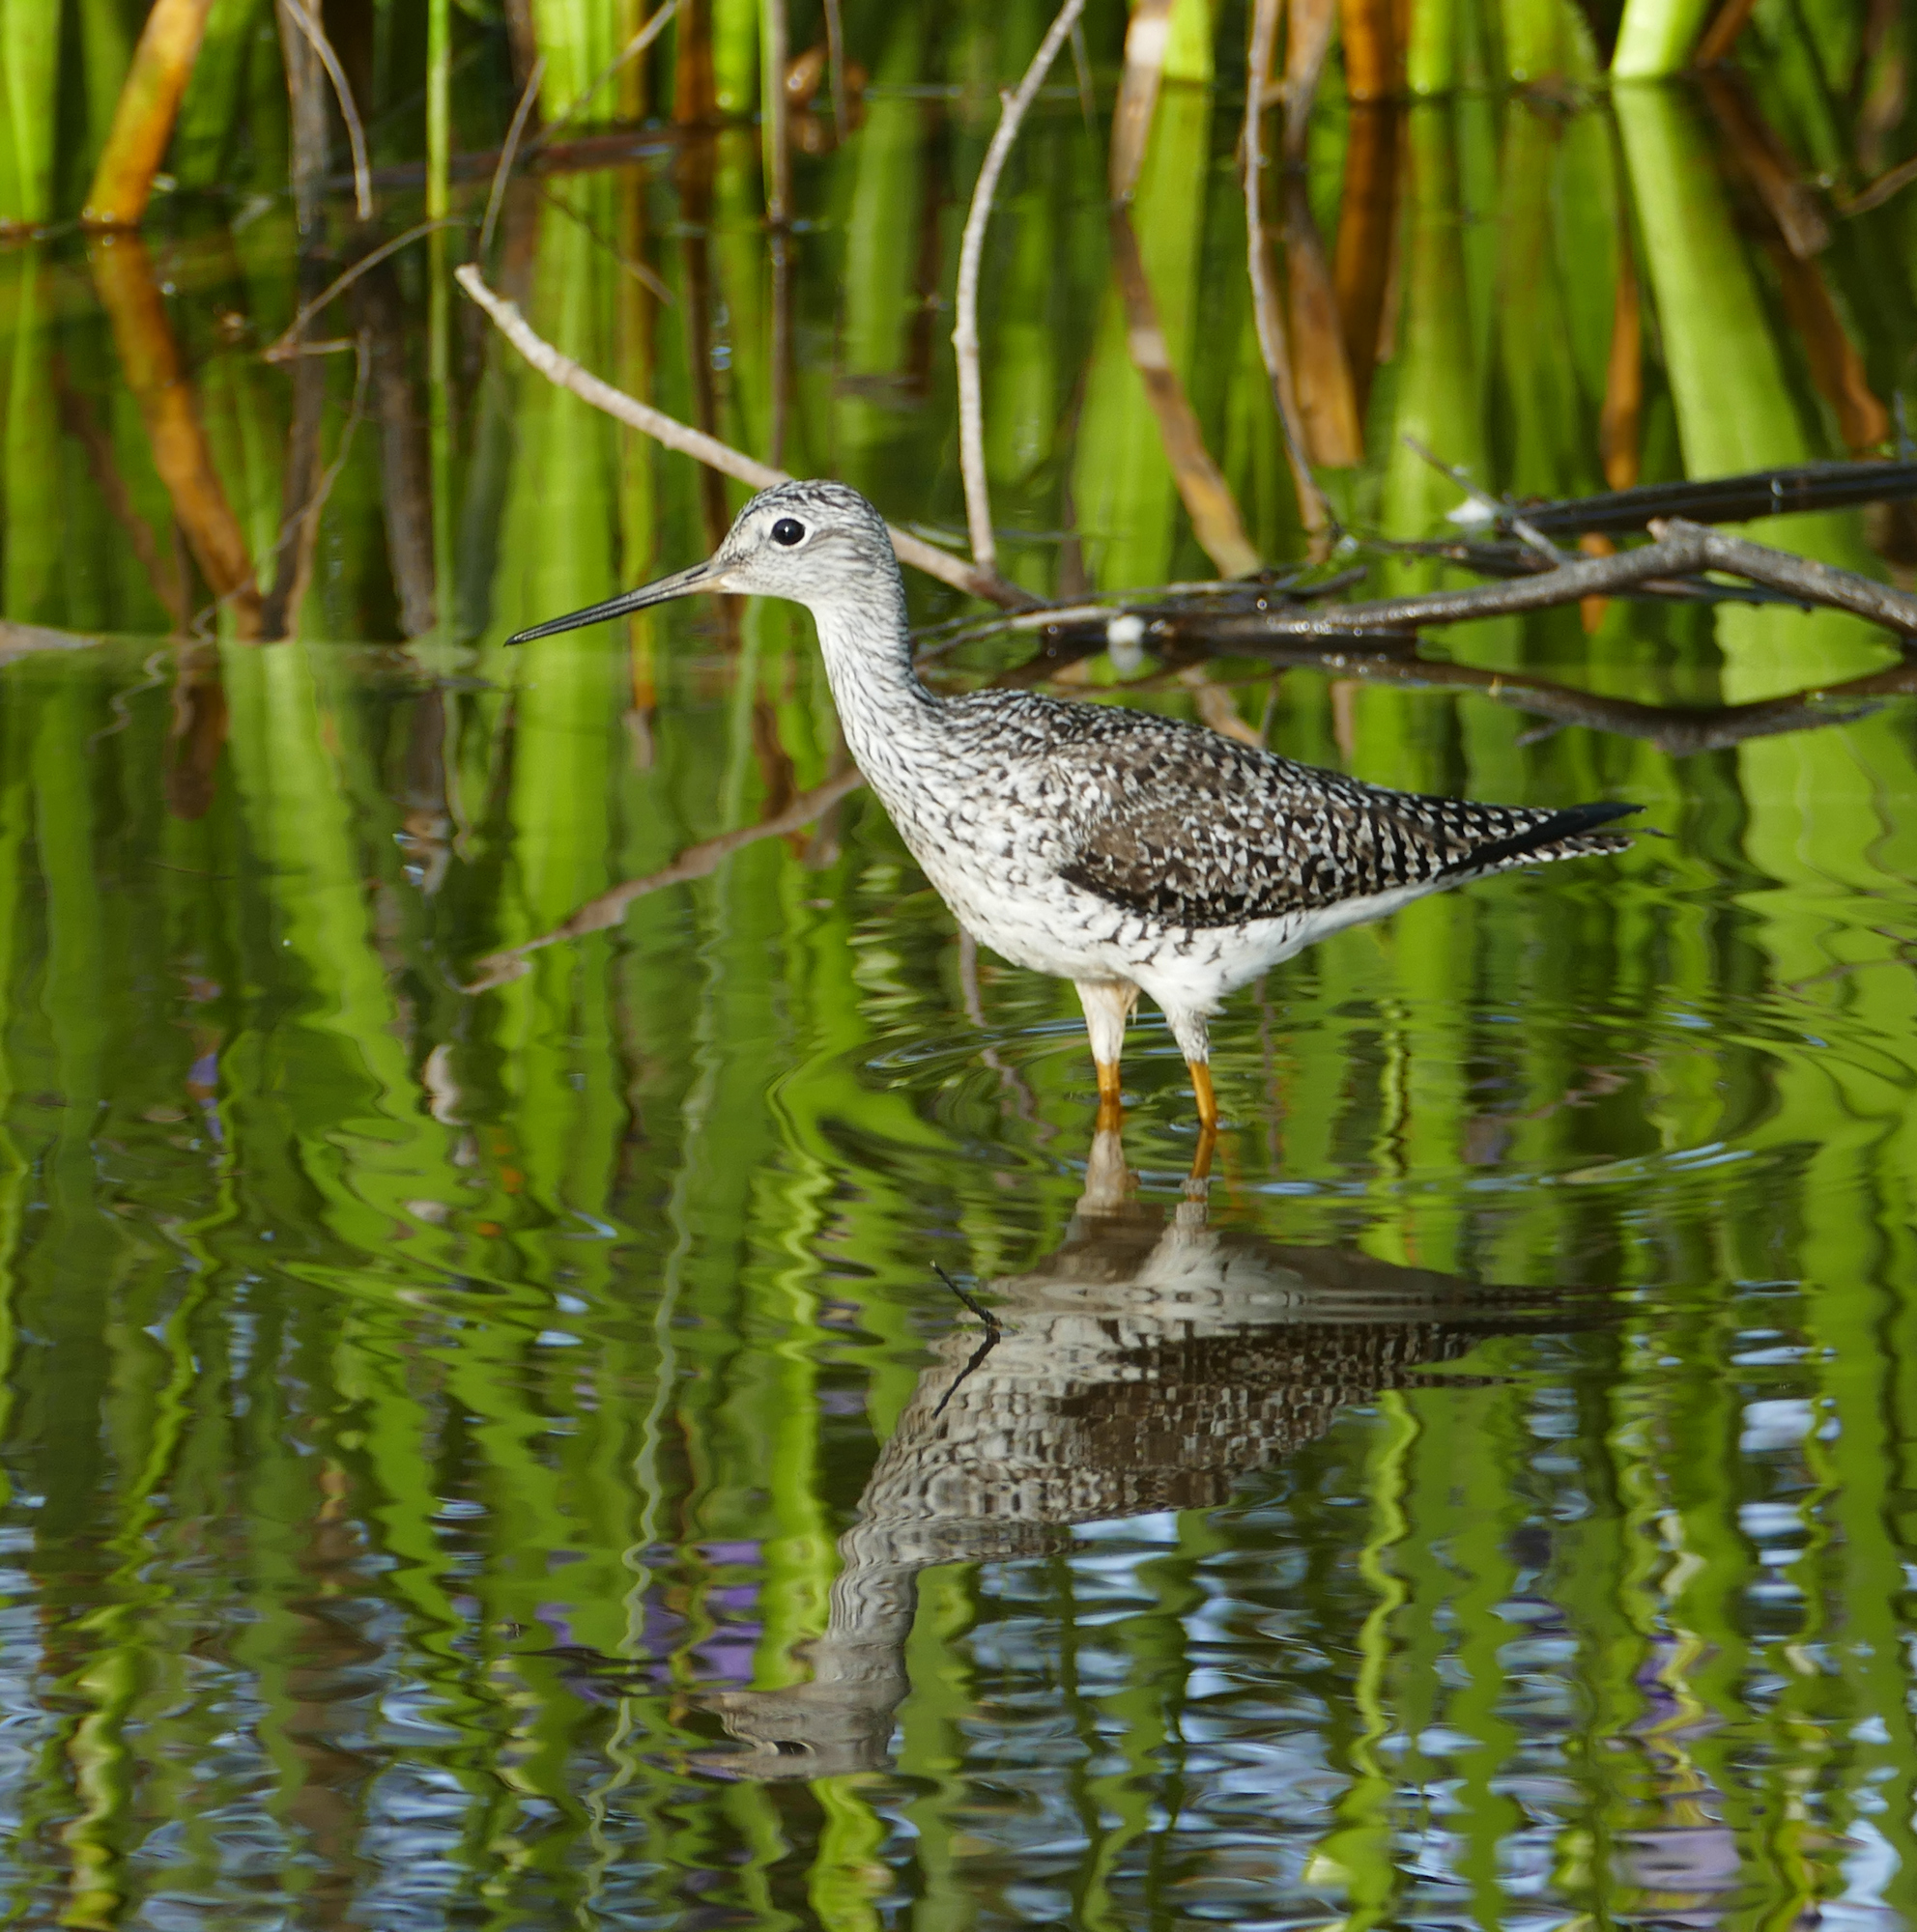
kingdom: Animalia
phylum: Chordata
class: Aves
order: Charadriiformes
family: Scolopacidae
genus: Tringa
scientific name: Tringa melanoleuca
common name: Greater yellowlegs
